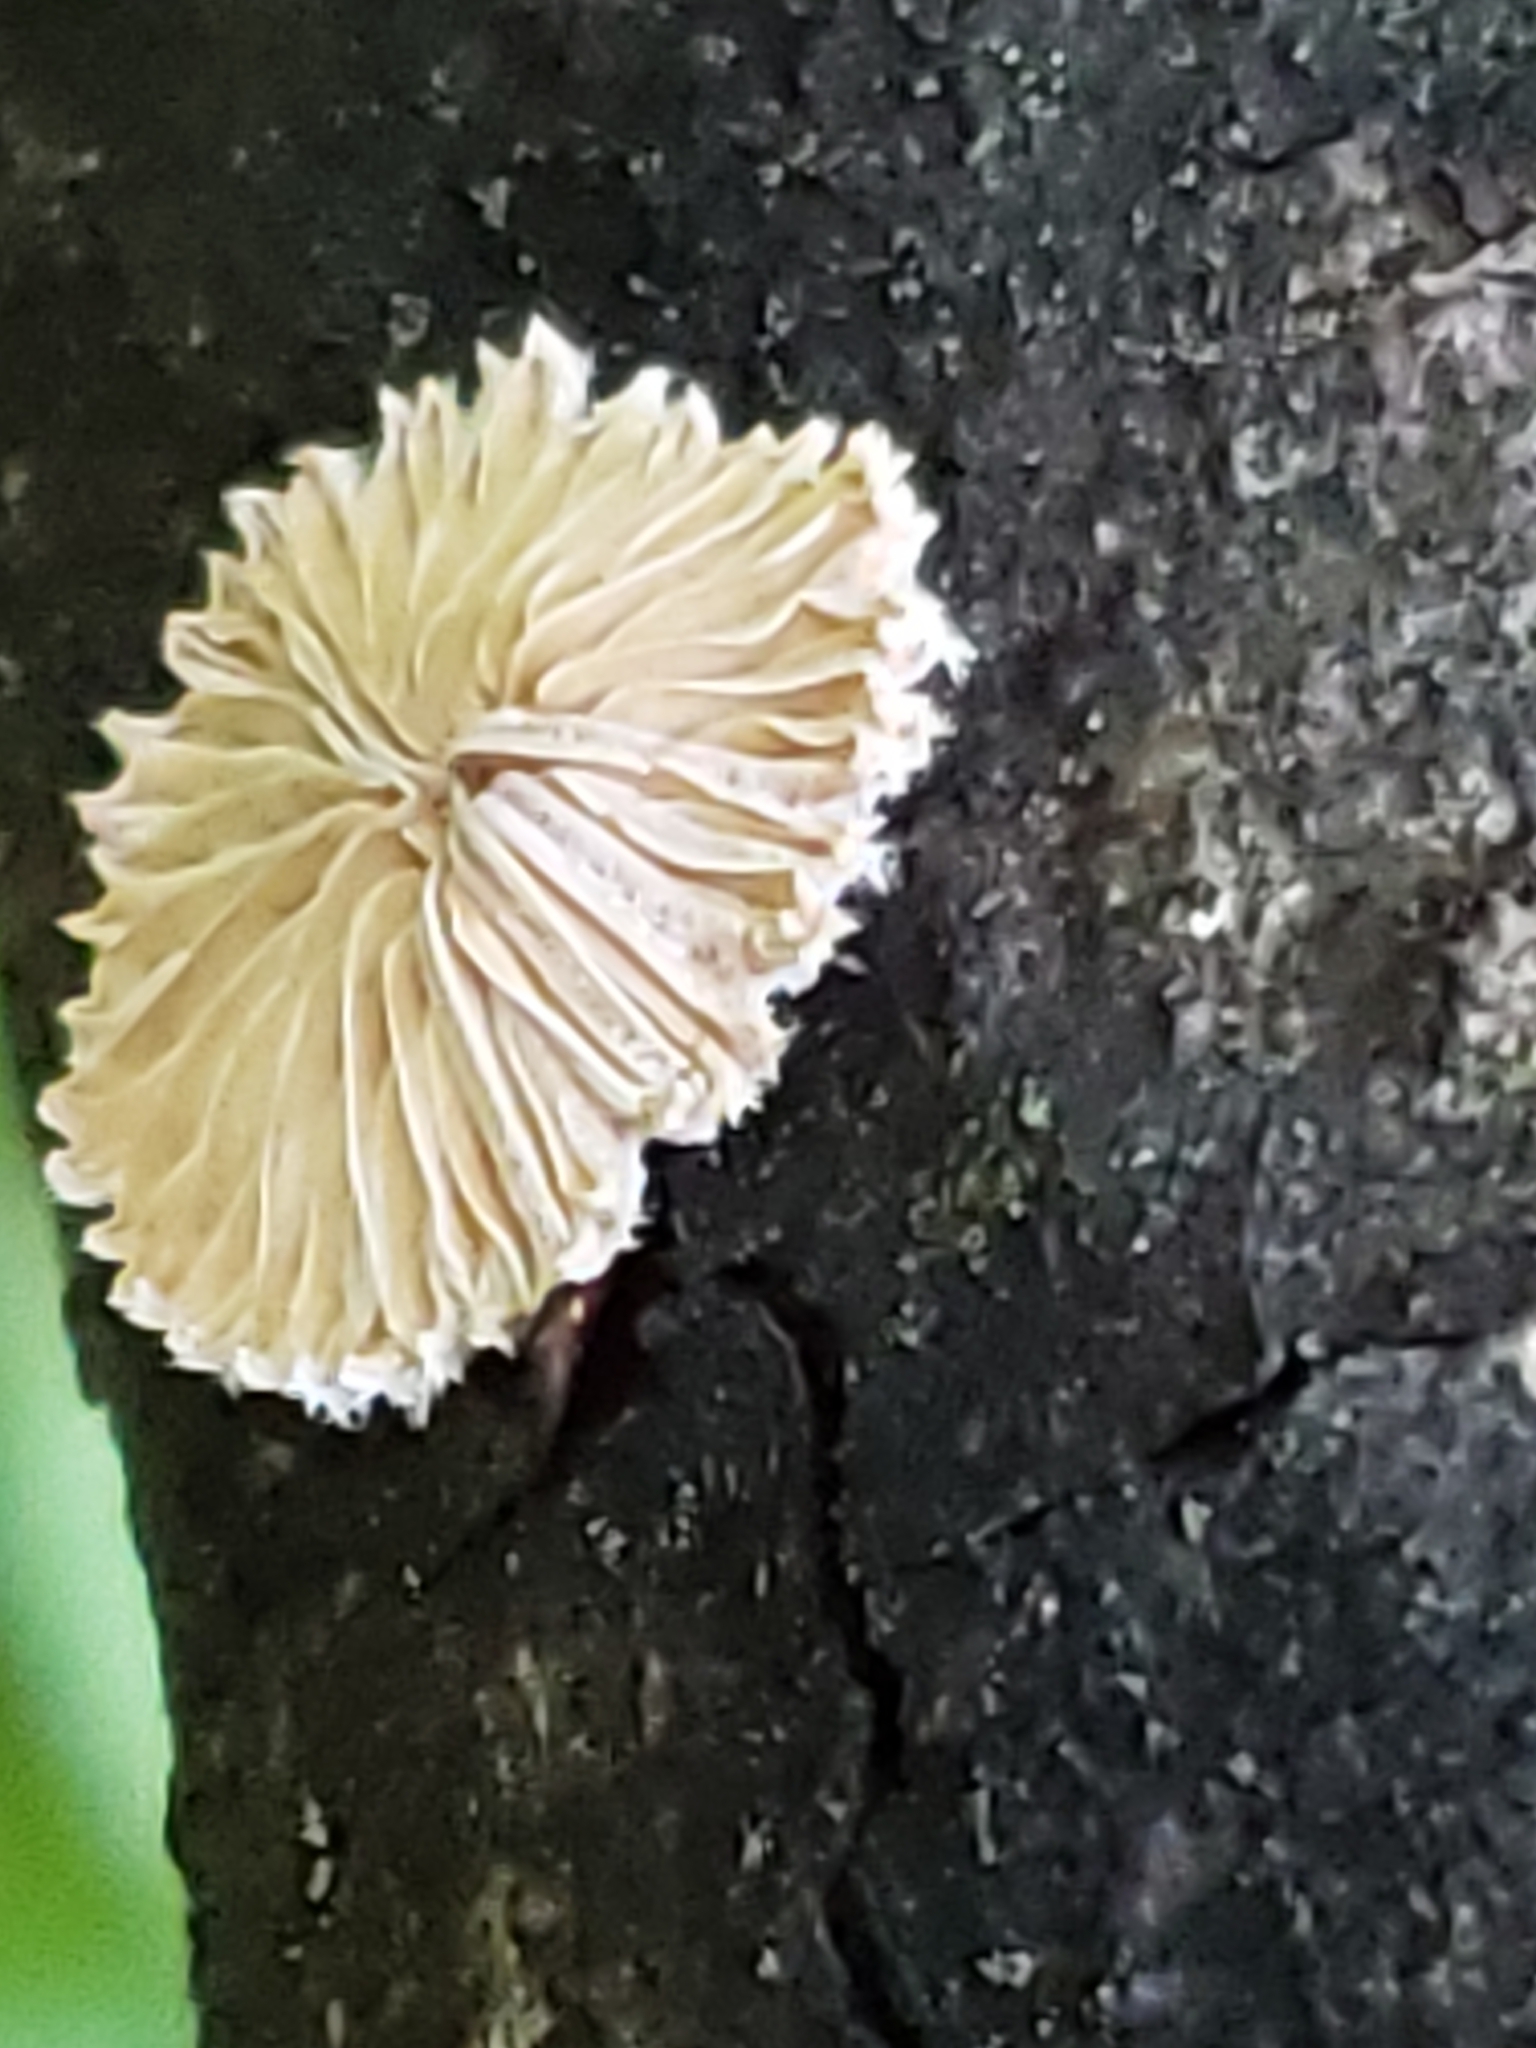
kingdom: Fungi
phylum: Basidiomycota
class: Agaricomycetes
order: Agaricales
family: Schizophyllaceae
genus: Schizophyllum
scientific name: Schizophyllum commune
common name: Common porecrust
